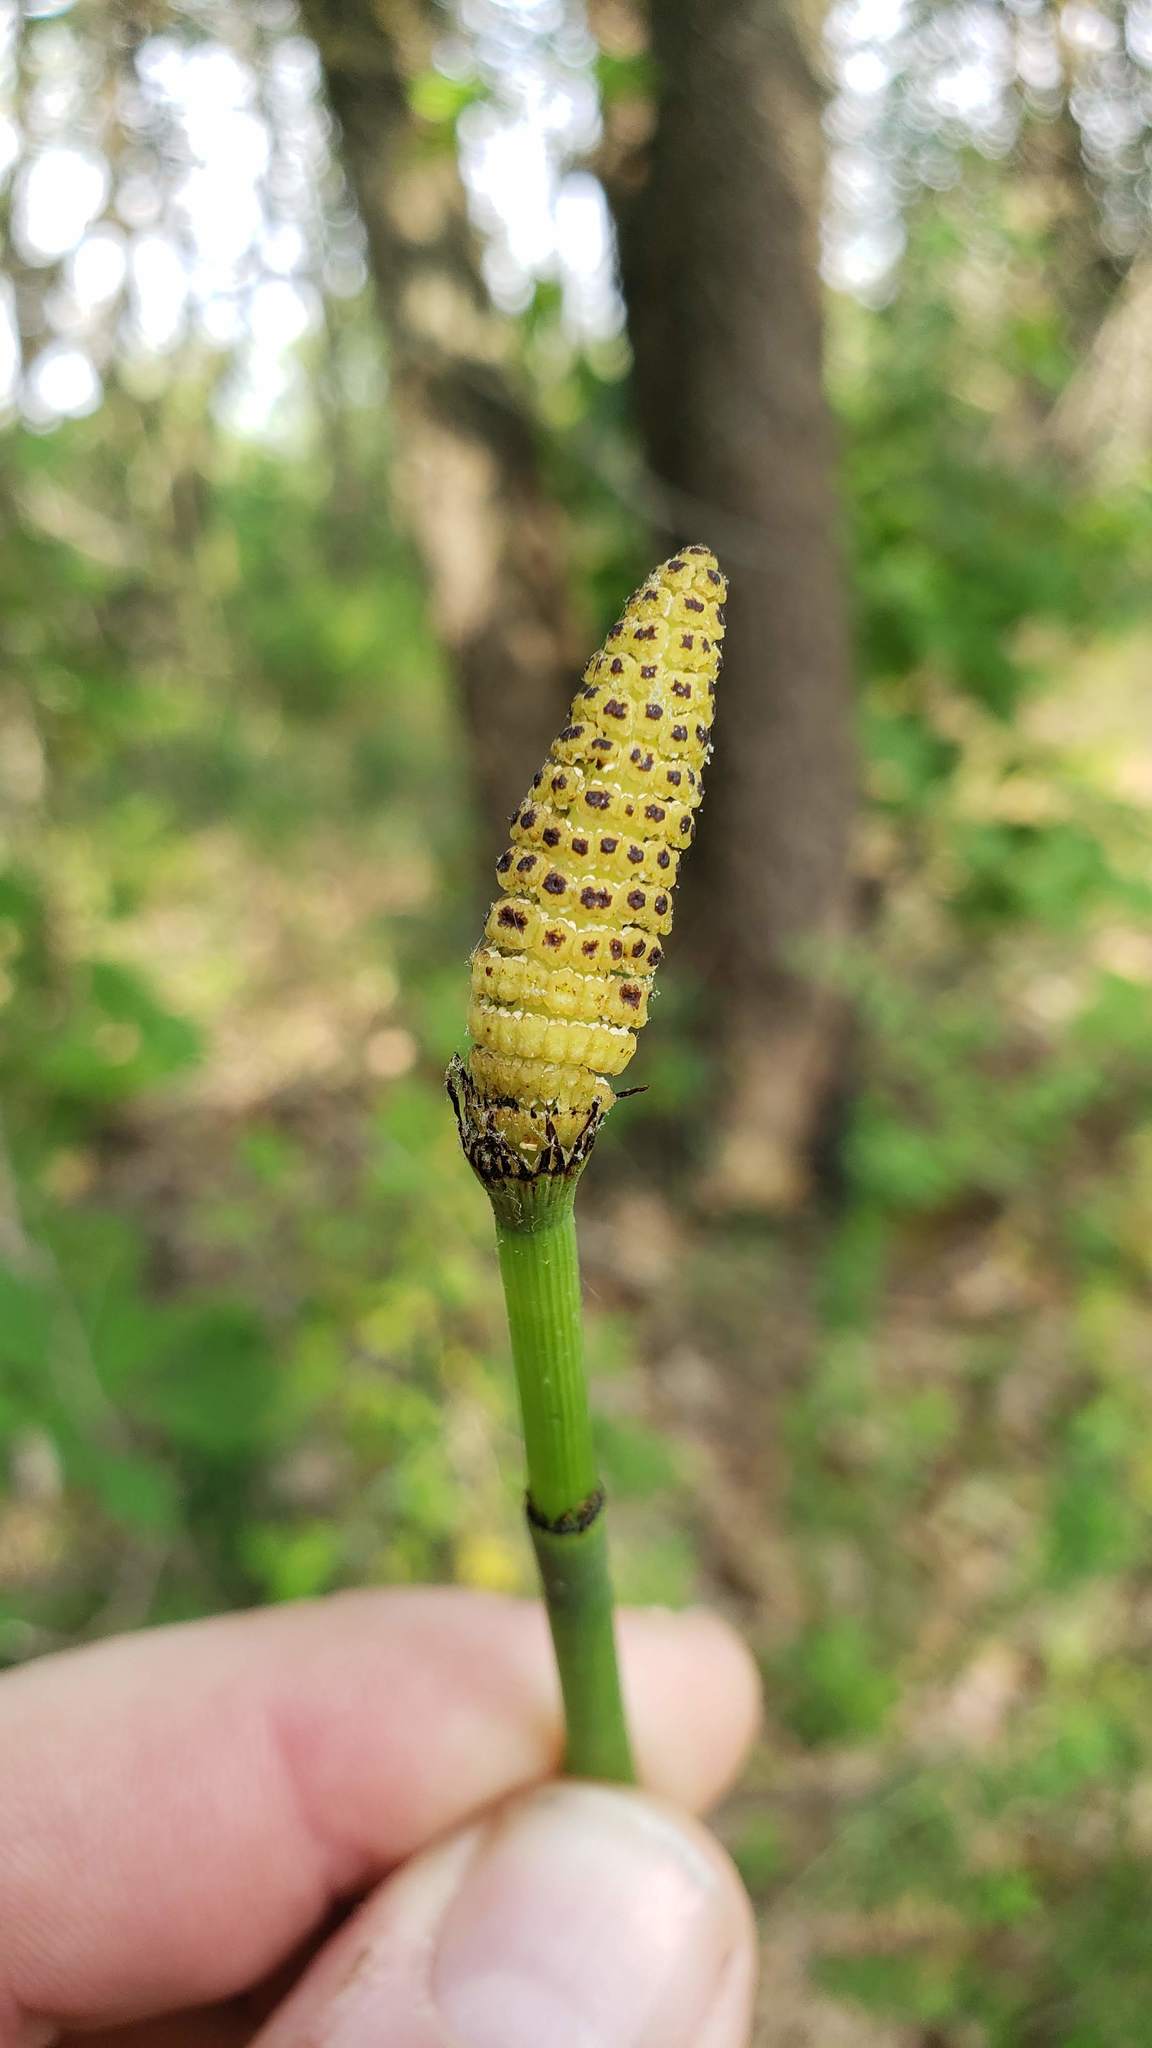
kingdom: Plantae
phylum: Tracheophyta
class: Polypodiopsida
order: Equisetales
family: Equisetaceae
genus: Equisetum
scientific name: Equisetum laevigatum
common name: Smooth scouring-rush
